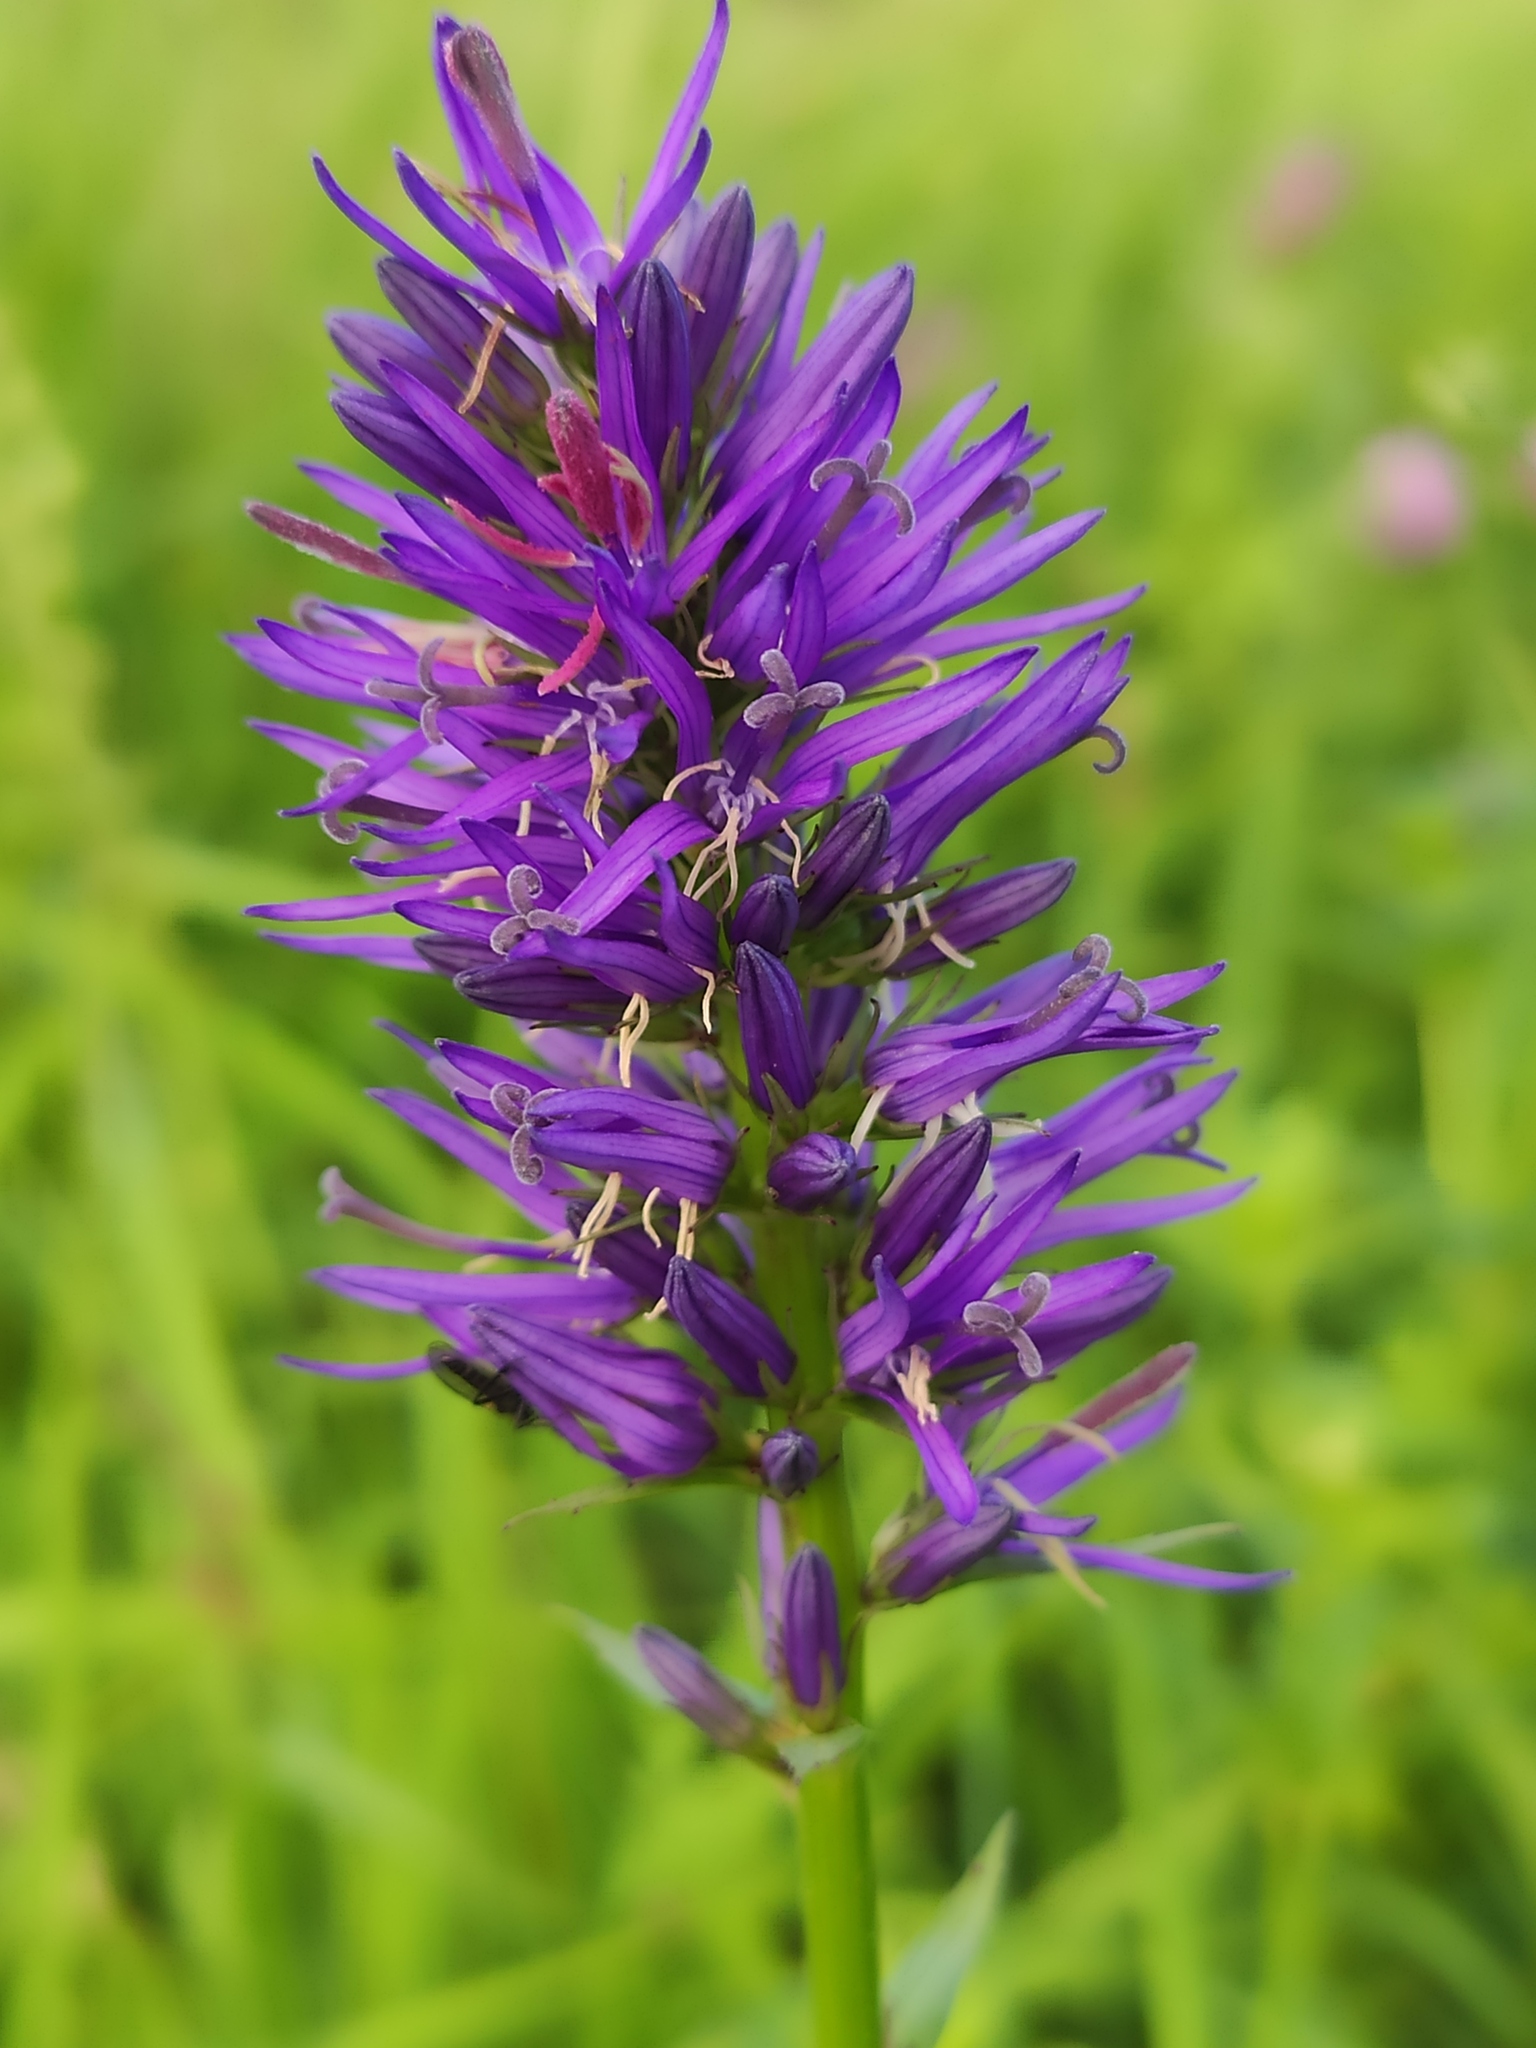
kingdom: Plantae
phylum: Tracheophyta
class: Magnoliopsida
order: Asterales
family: Campanulaceae
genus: Asyneuma
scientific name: Asyneuma campanuloides
